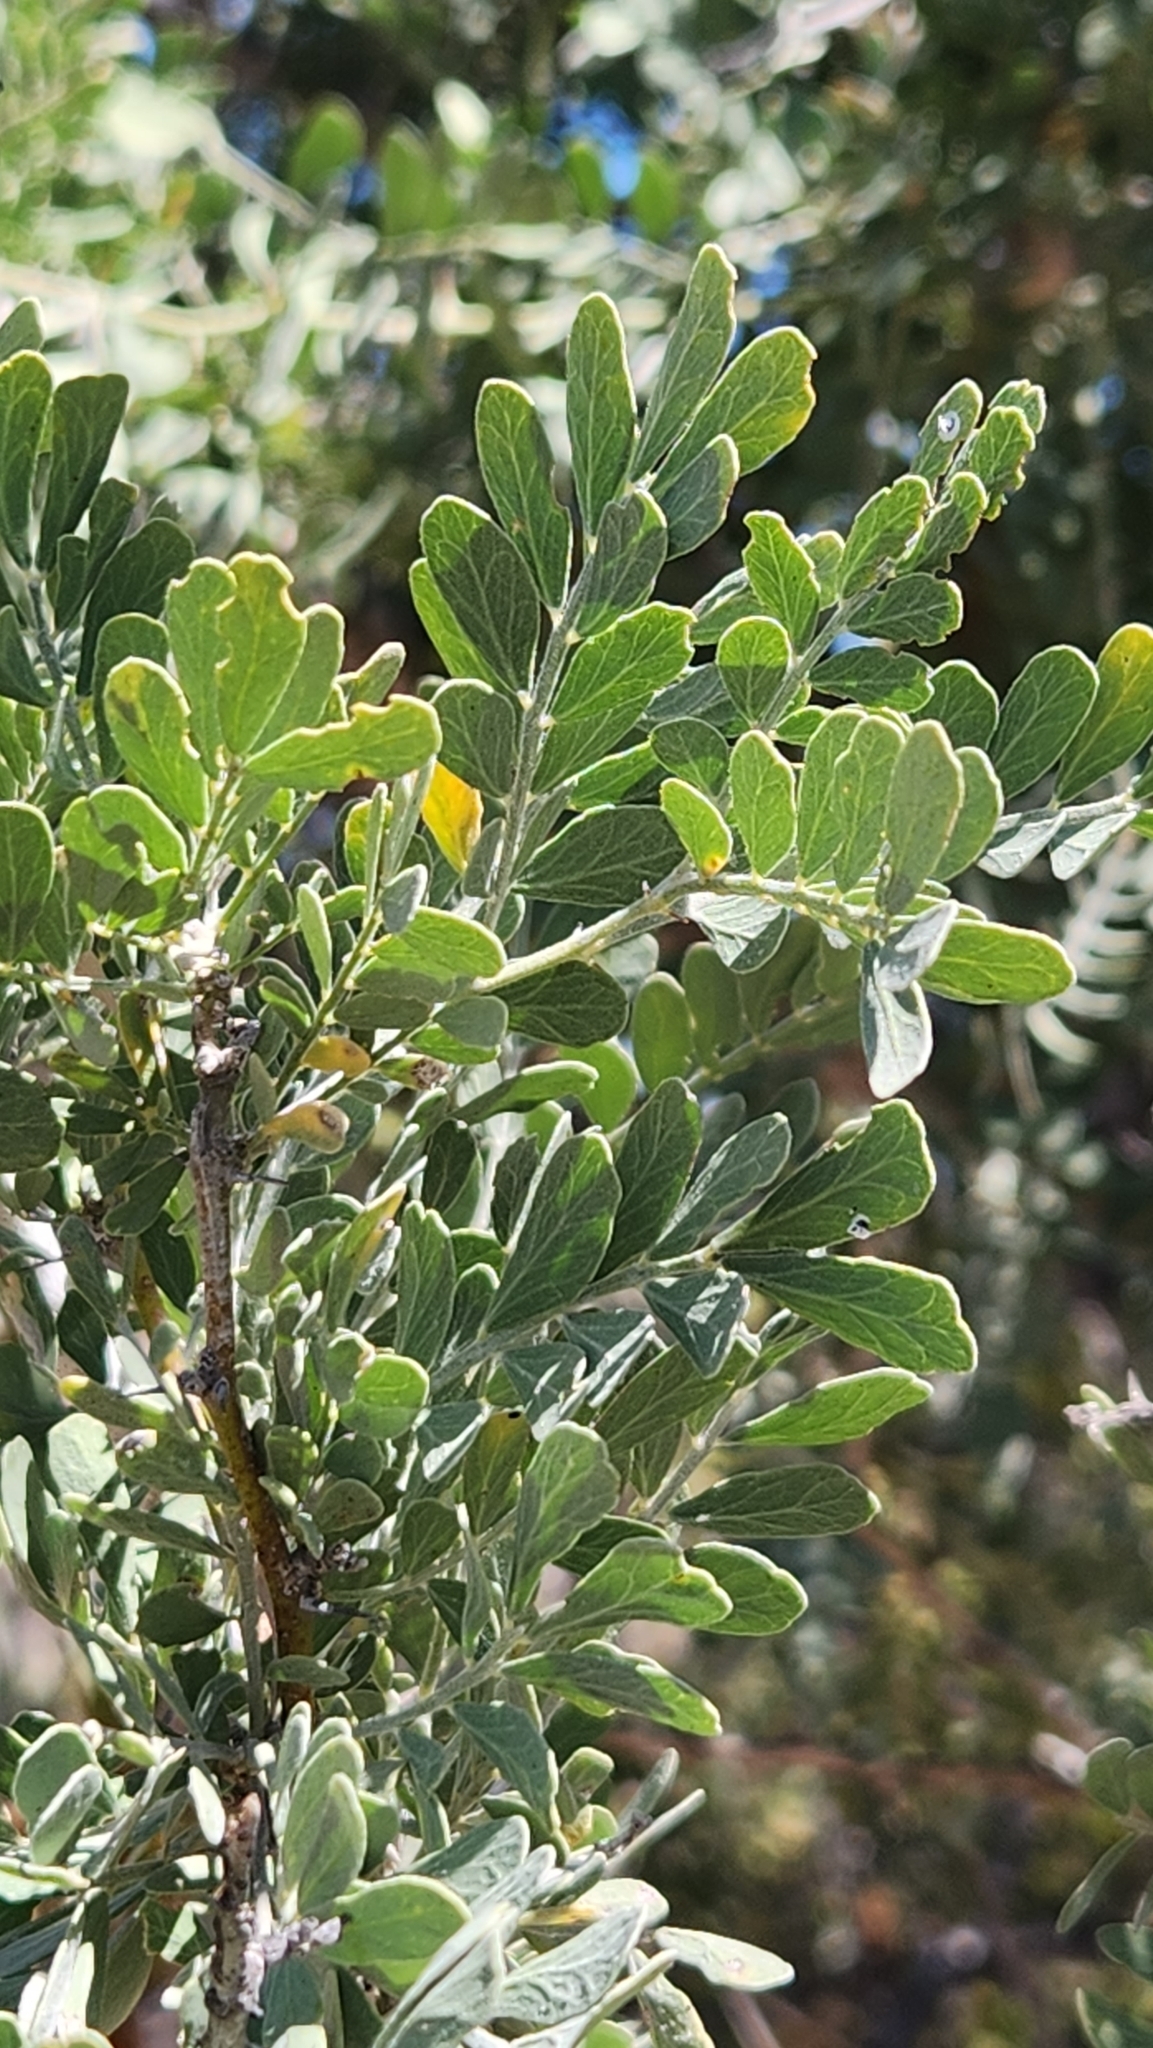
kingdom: Plantae
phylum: Tracheophyta
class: Magnoliopsida
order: Fabales
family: Fabaceae
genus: Olneya
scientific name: Olneya tesota
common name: Desert ironwood
